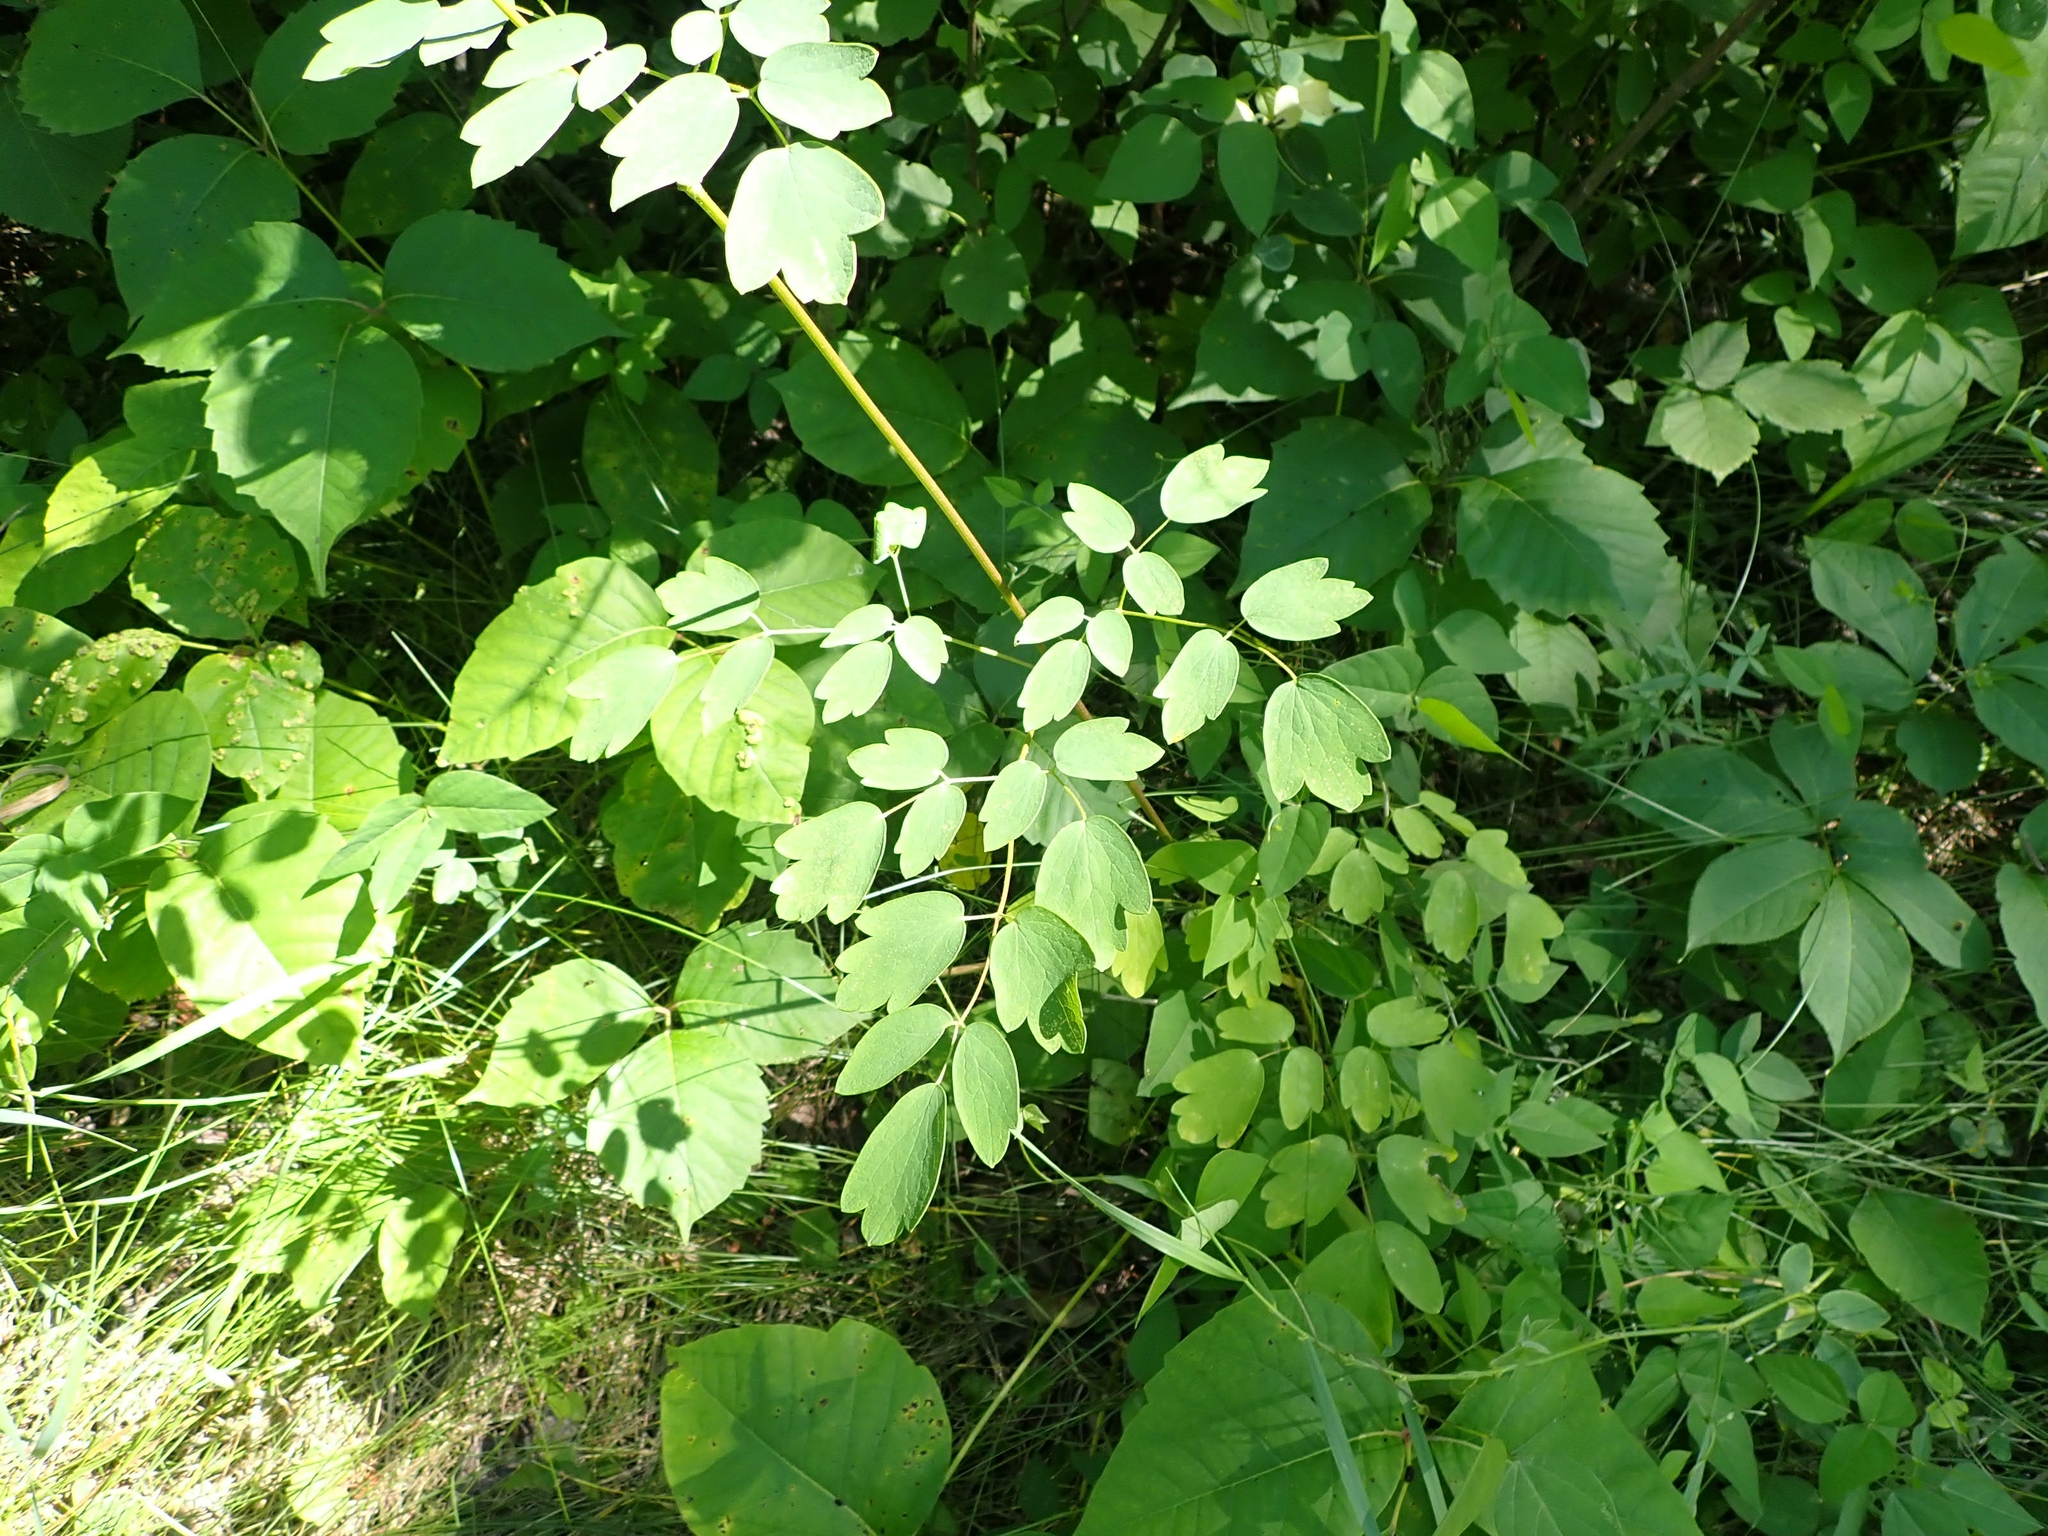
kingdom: Plantae
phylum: Tracheophyta
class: Magnoliopsida
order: Ranunculales
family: Ranunculaceae
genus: Thalictrum
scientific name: Thalictrum dasycarpum
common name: Purple meadow-rue
